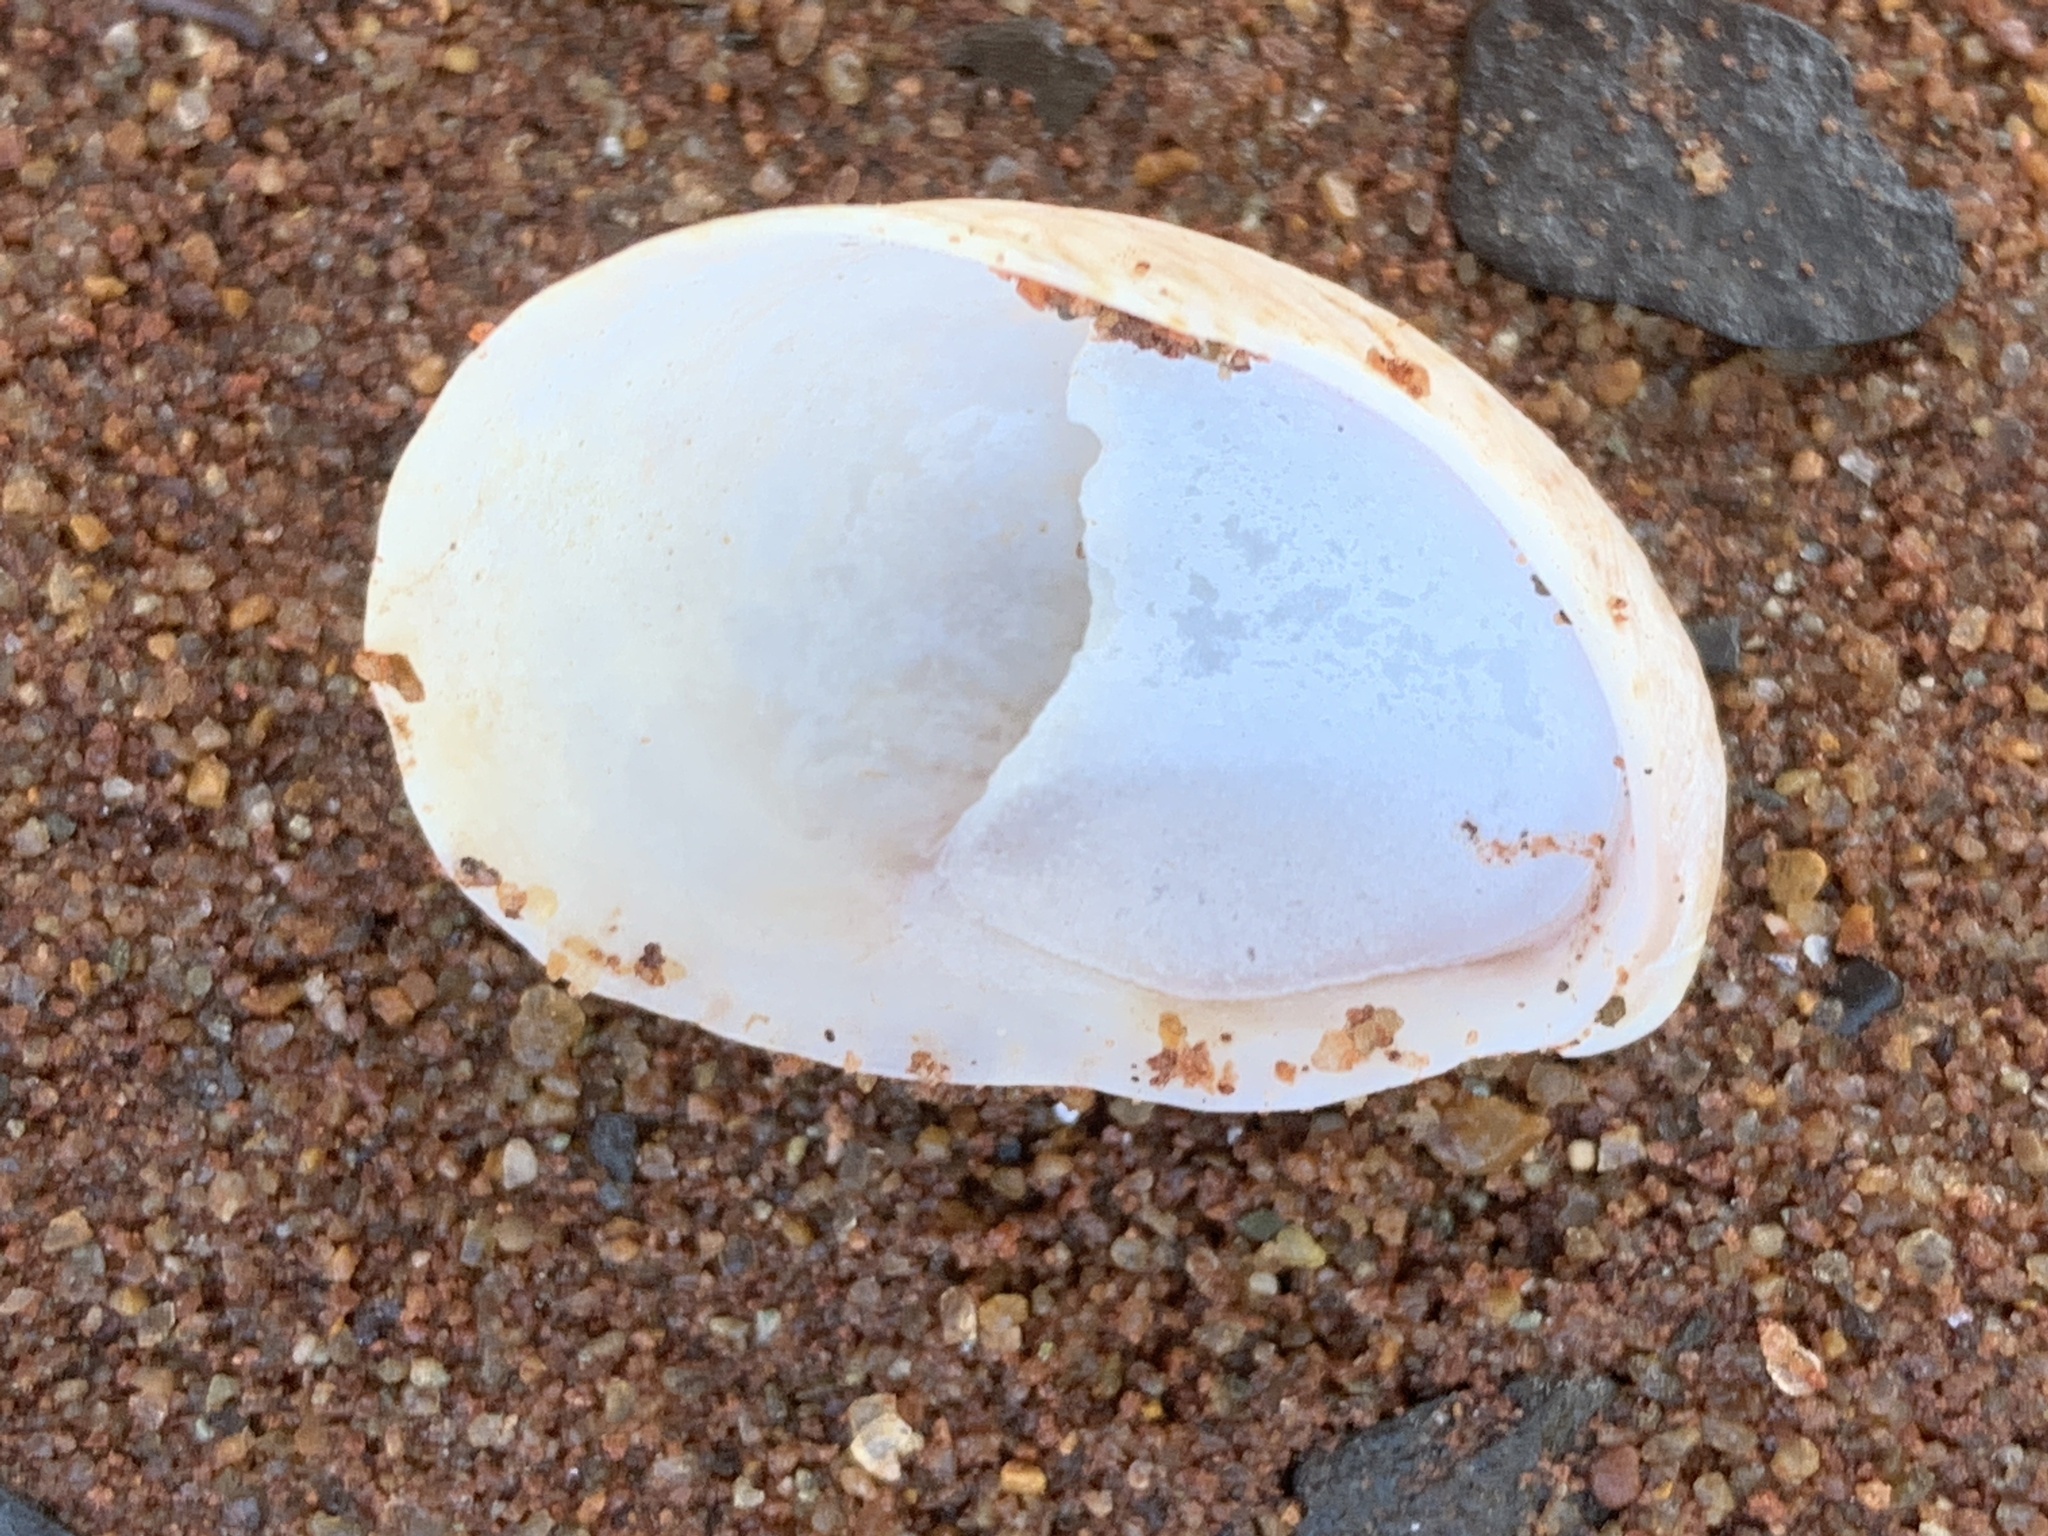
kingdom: Animalia
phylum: Mollusca
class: Gastropoda
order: Littorinimorpha
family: Calyptraeidae
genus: Crepidula
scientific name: Crepidula fornicata
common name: Slipper limpet
